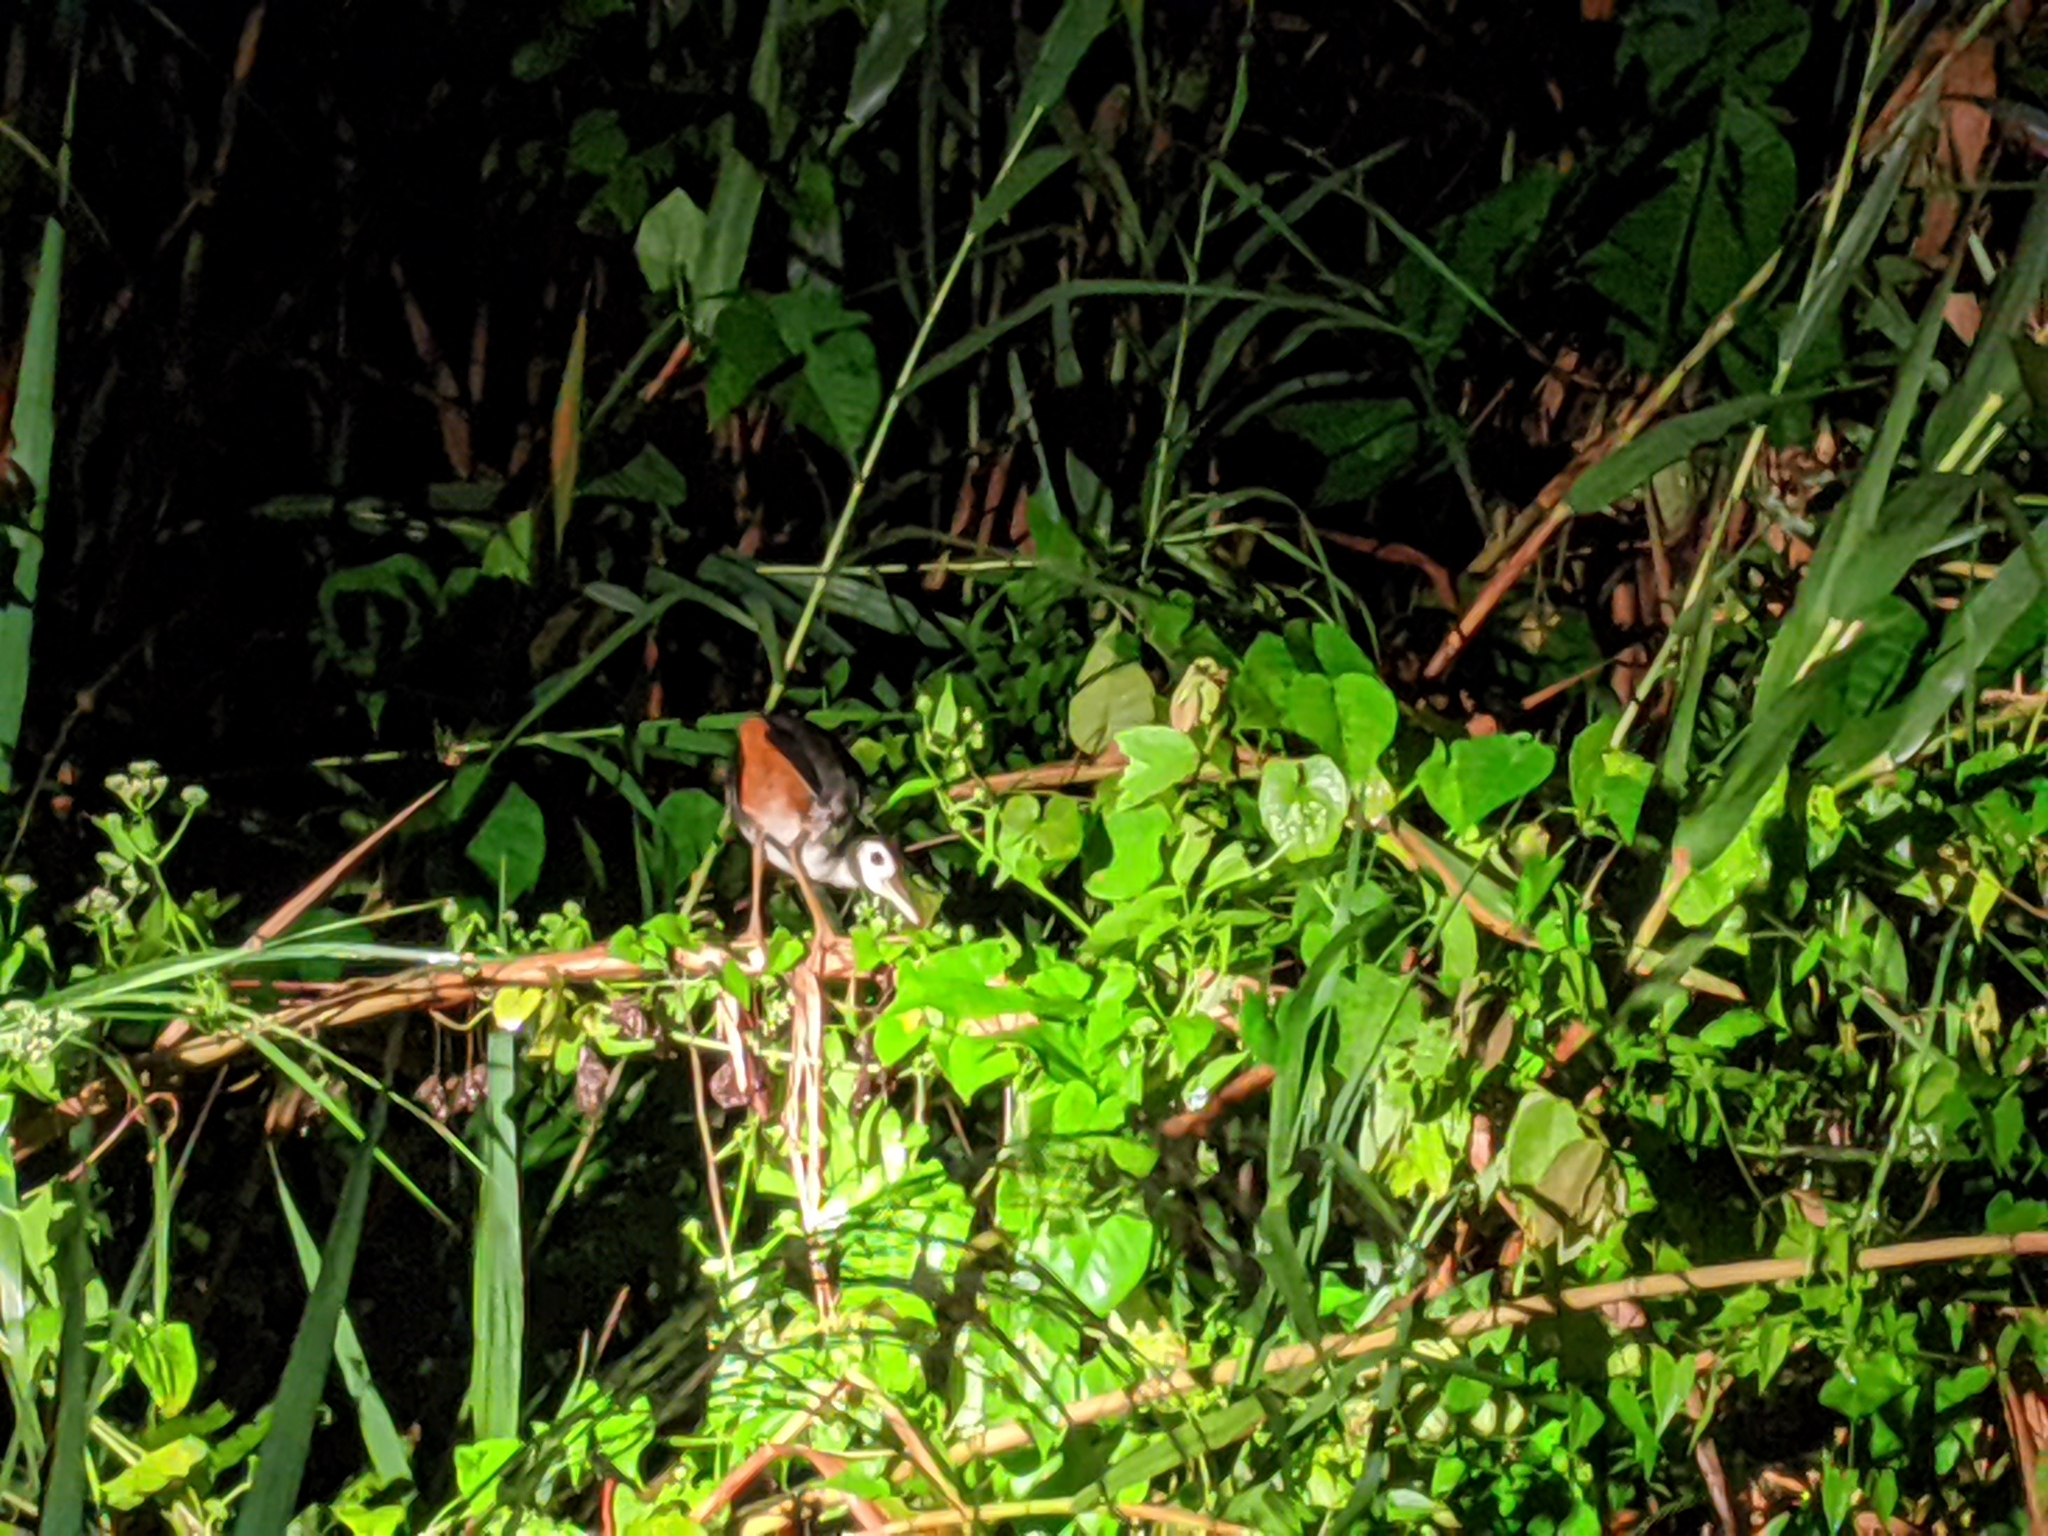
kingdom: Animalia
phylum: Chordata
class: Aves
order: Gruiformes
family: Rallidae
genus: Amaurornis
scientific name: Amaurornis phoenicurus
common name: White-breasted waterhen
